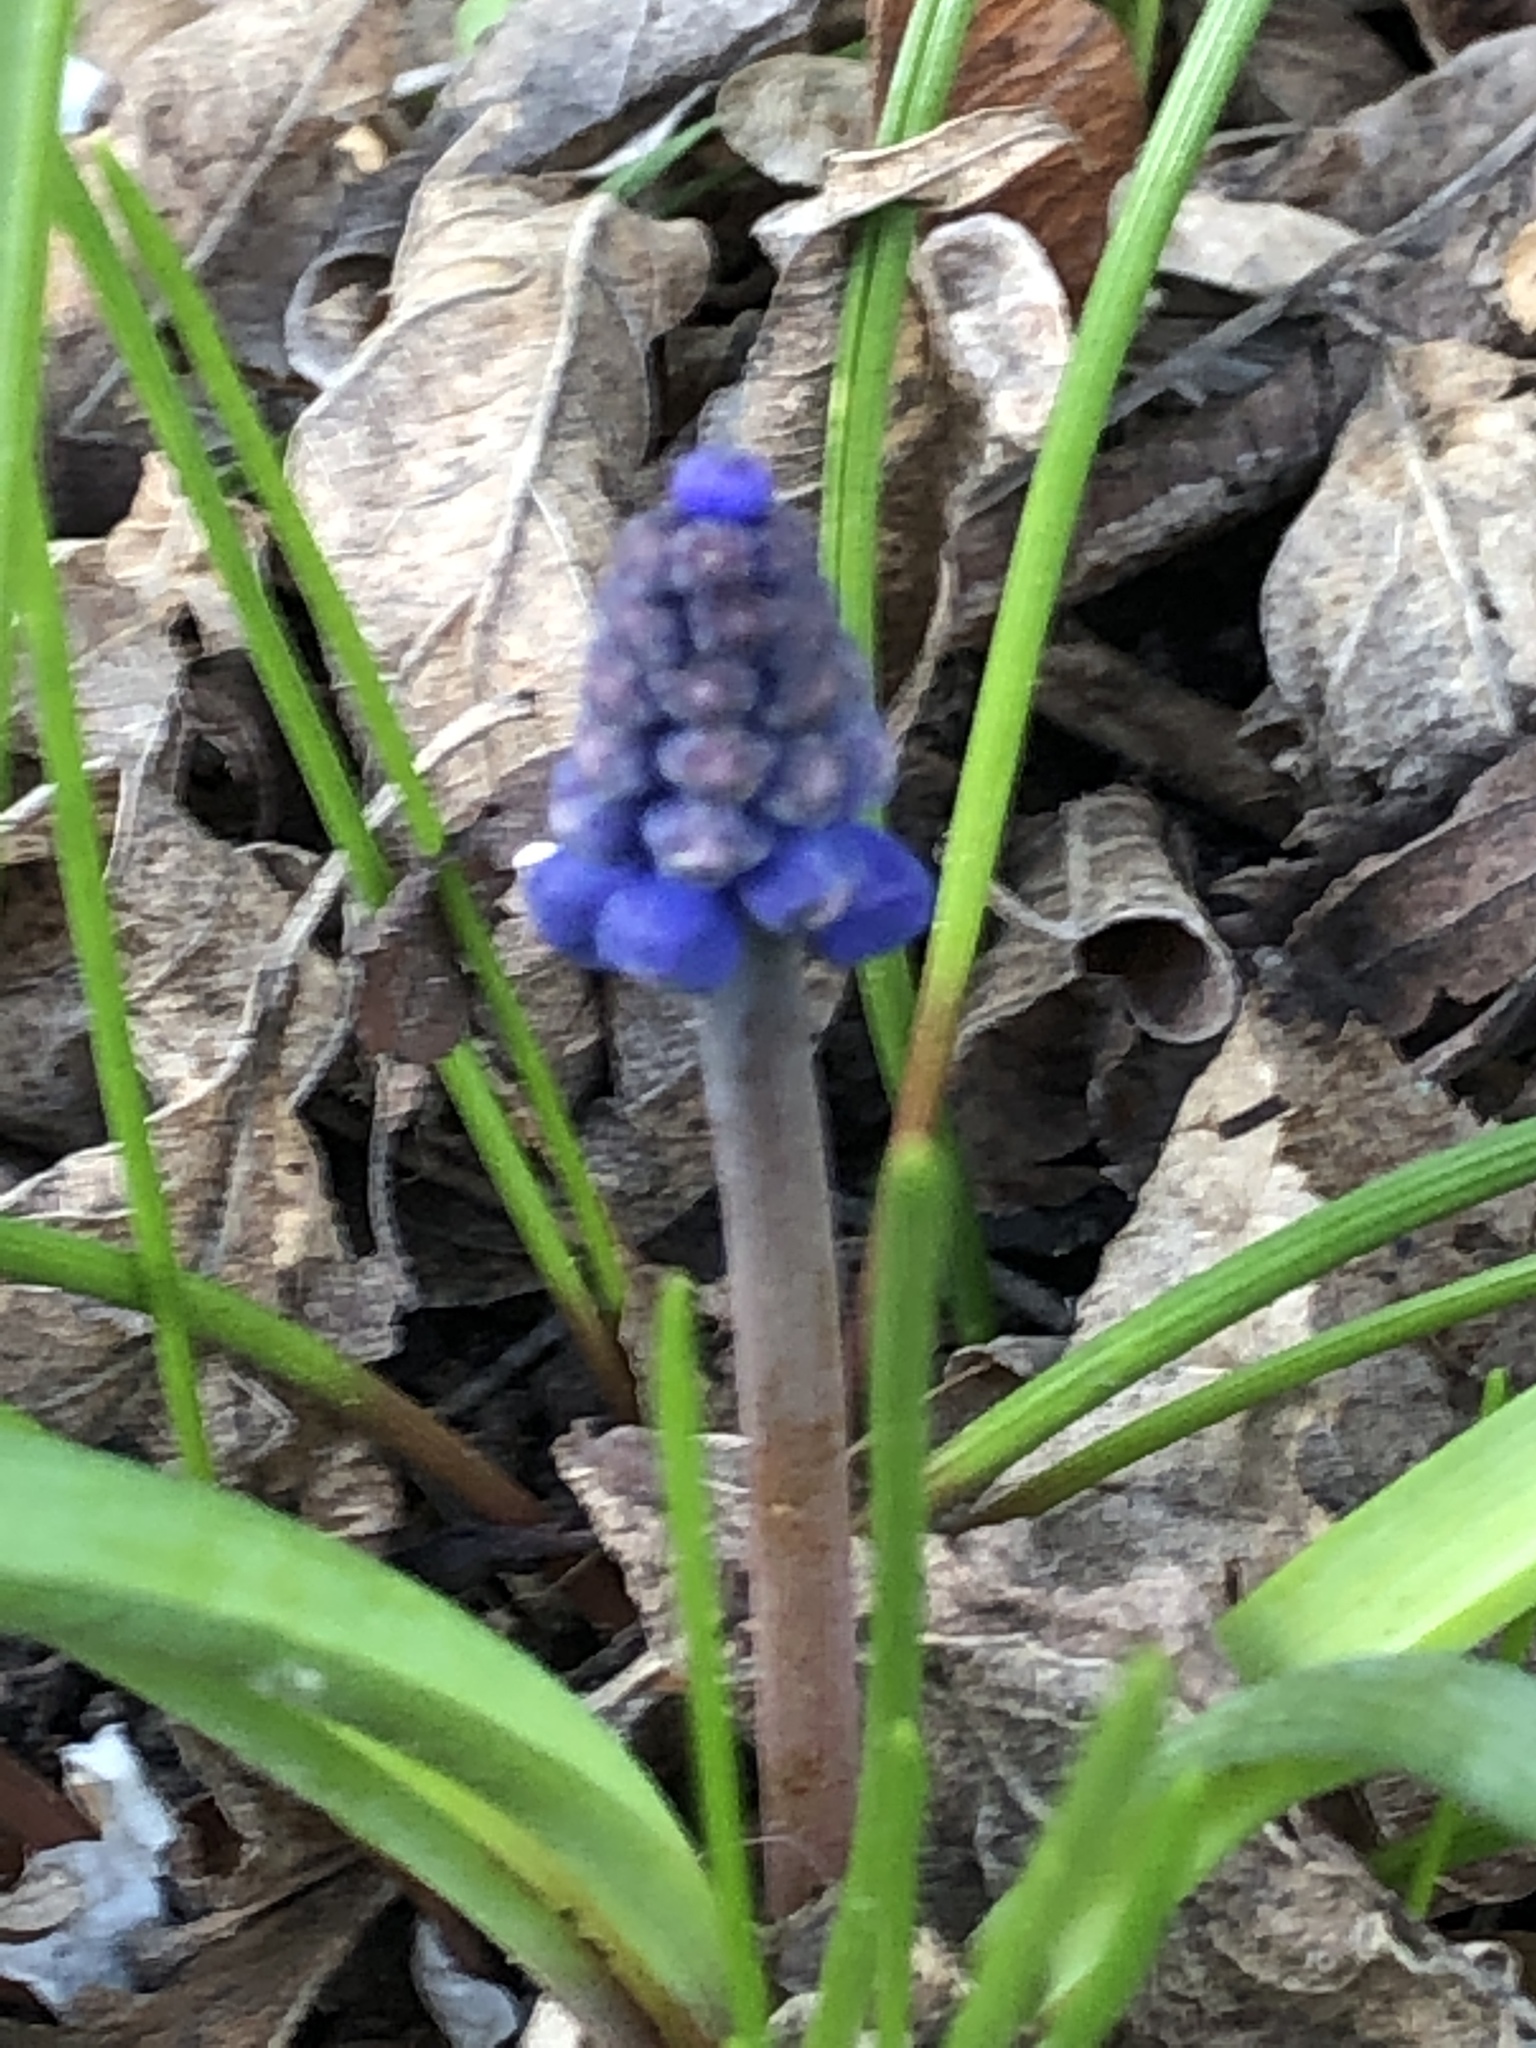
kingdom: Plantae
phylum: Tracheophyta
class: Liliopsida
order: Asparagales
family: Asparagaceae
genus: Muscari
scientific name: Muscari botryoides
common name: Compact grape-hyacinth
